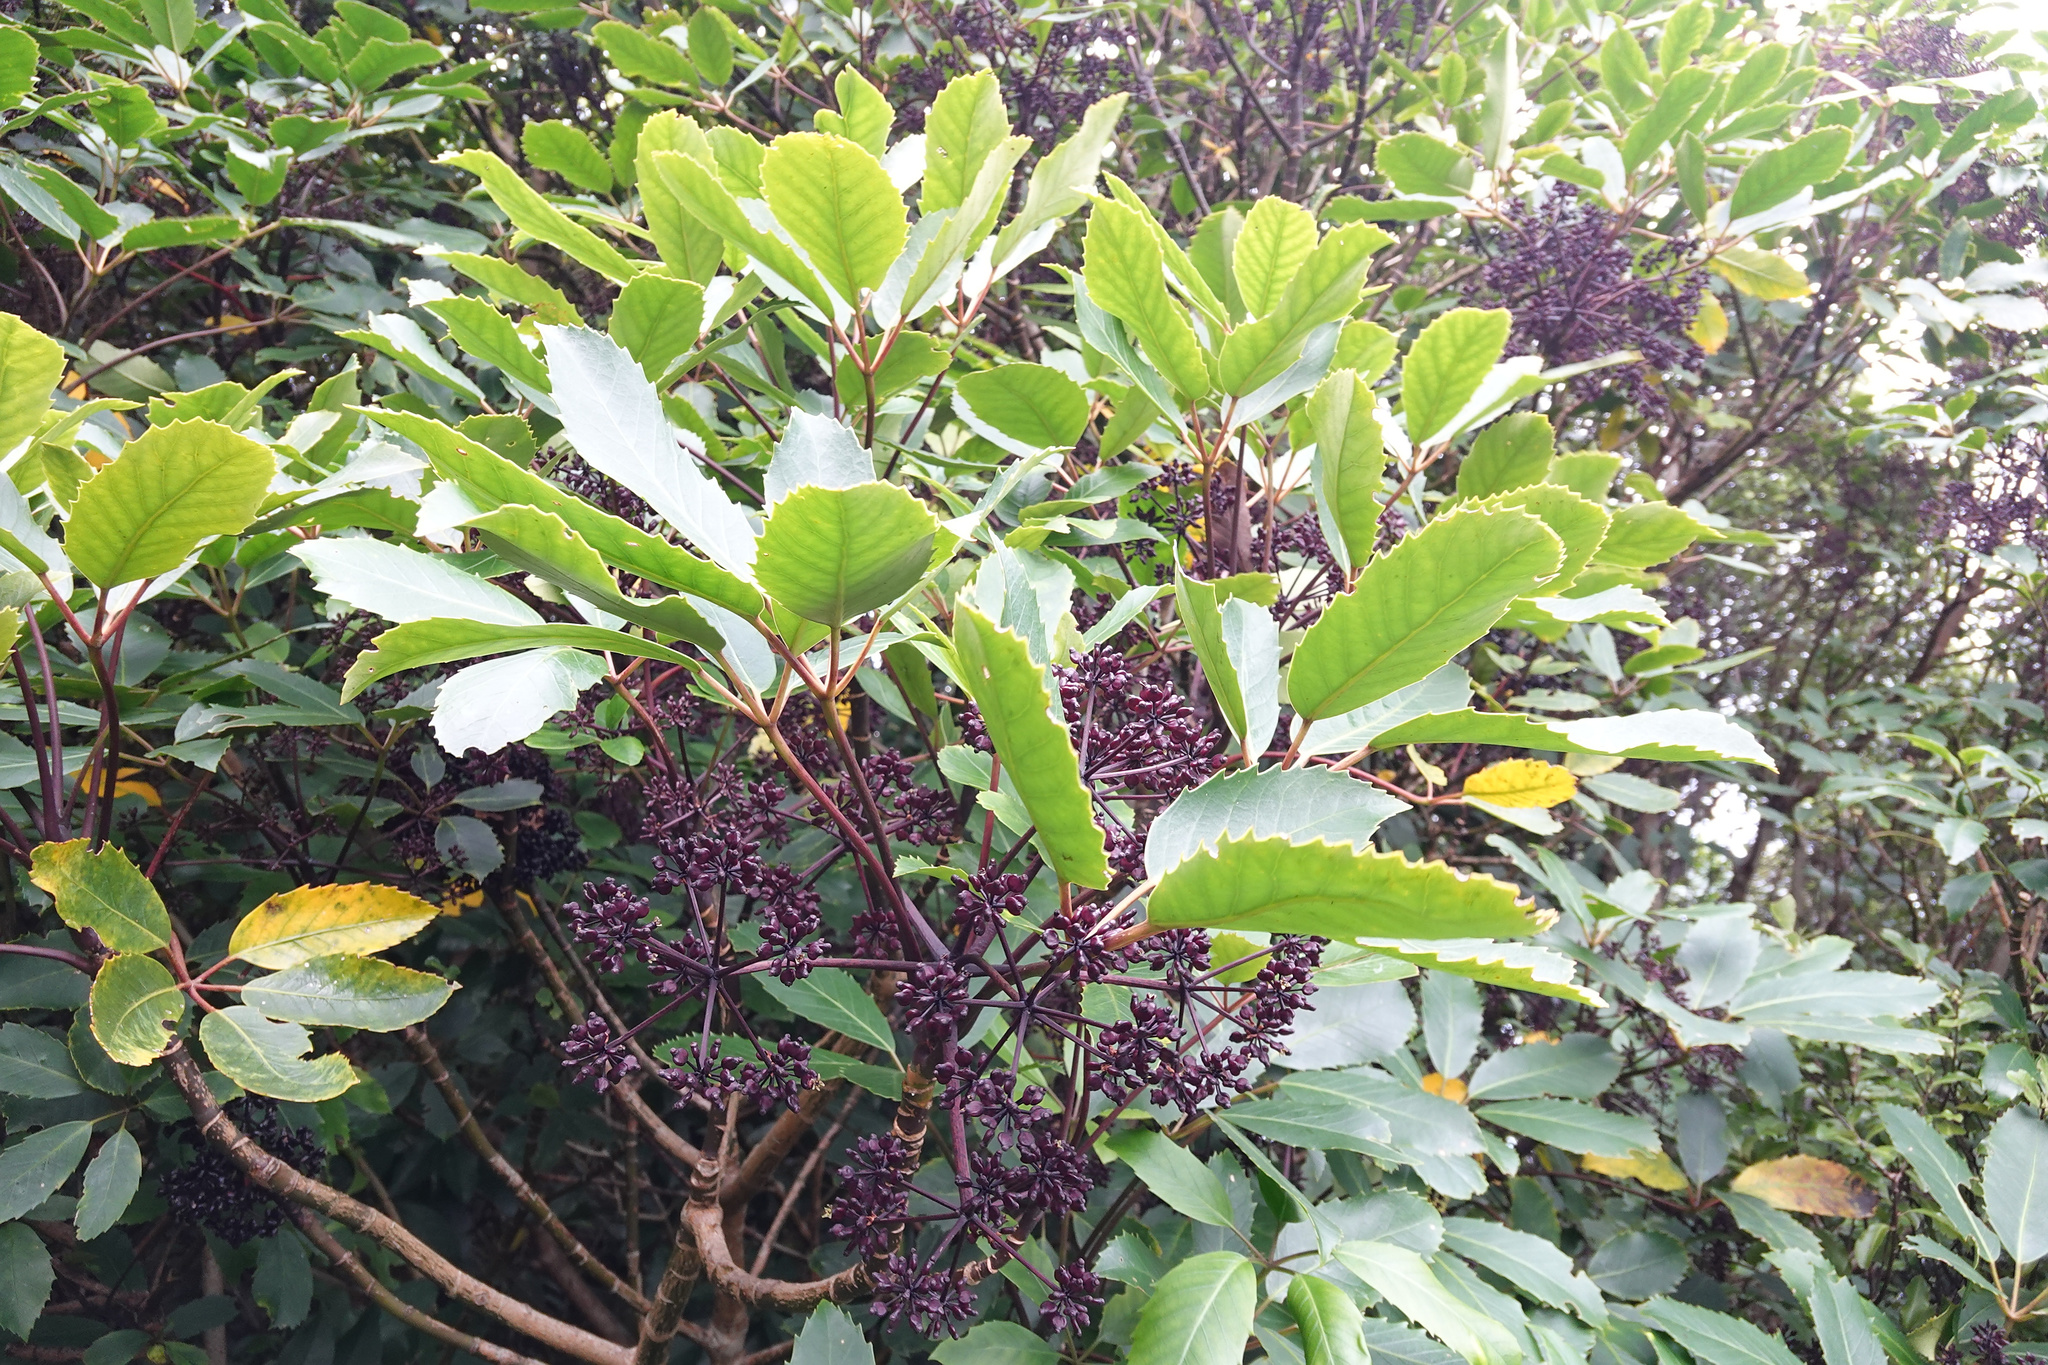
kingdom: Plantae
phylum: Tracheophyta
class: Magnoliopsida
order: Apiales
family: Araliaceae
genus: Neopanax
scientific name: Neopanax arboreus
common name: Five-fingers
